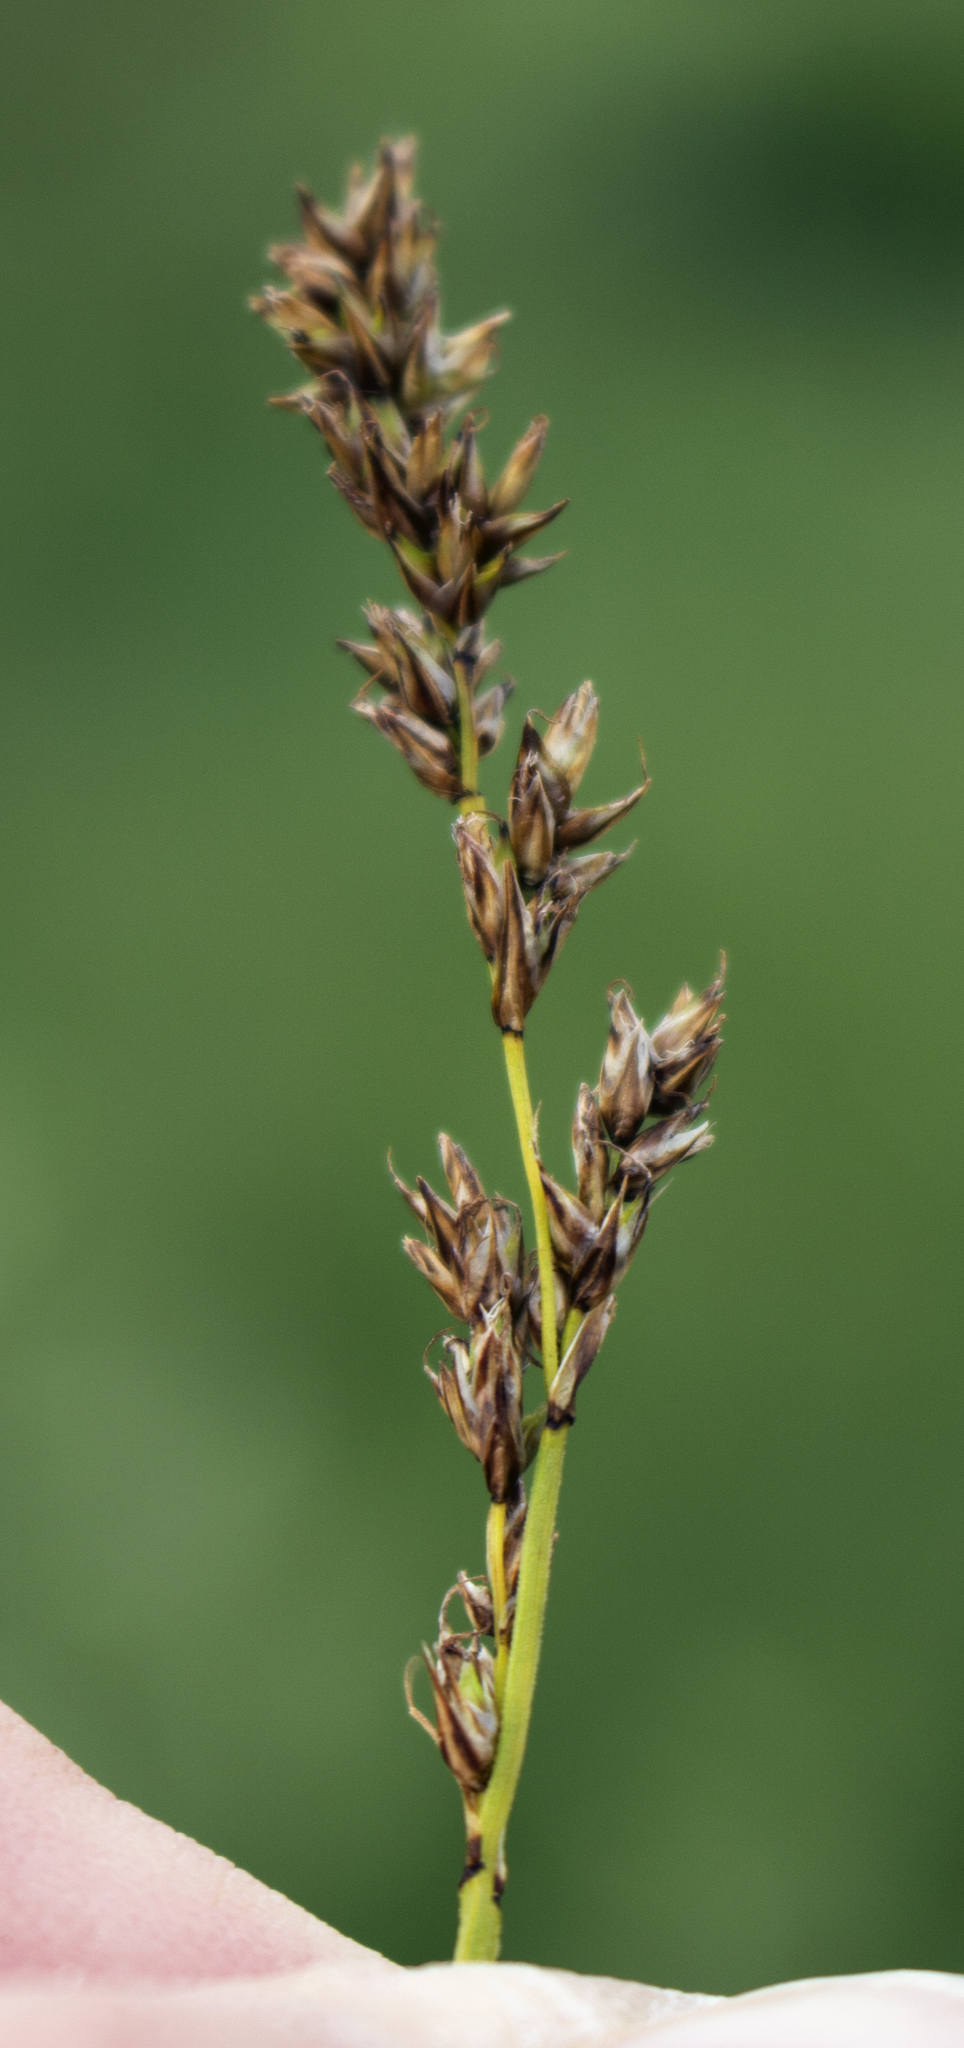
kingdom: Plantae
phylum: Tracheophyta
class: Liliopsida
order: Poales
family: Cyperaceae
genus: Carex
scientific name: Carex prairea
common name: Prairie sedge
